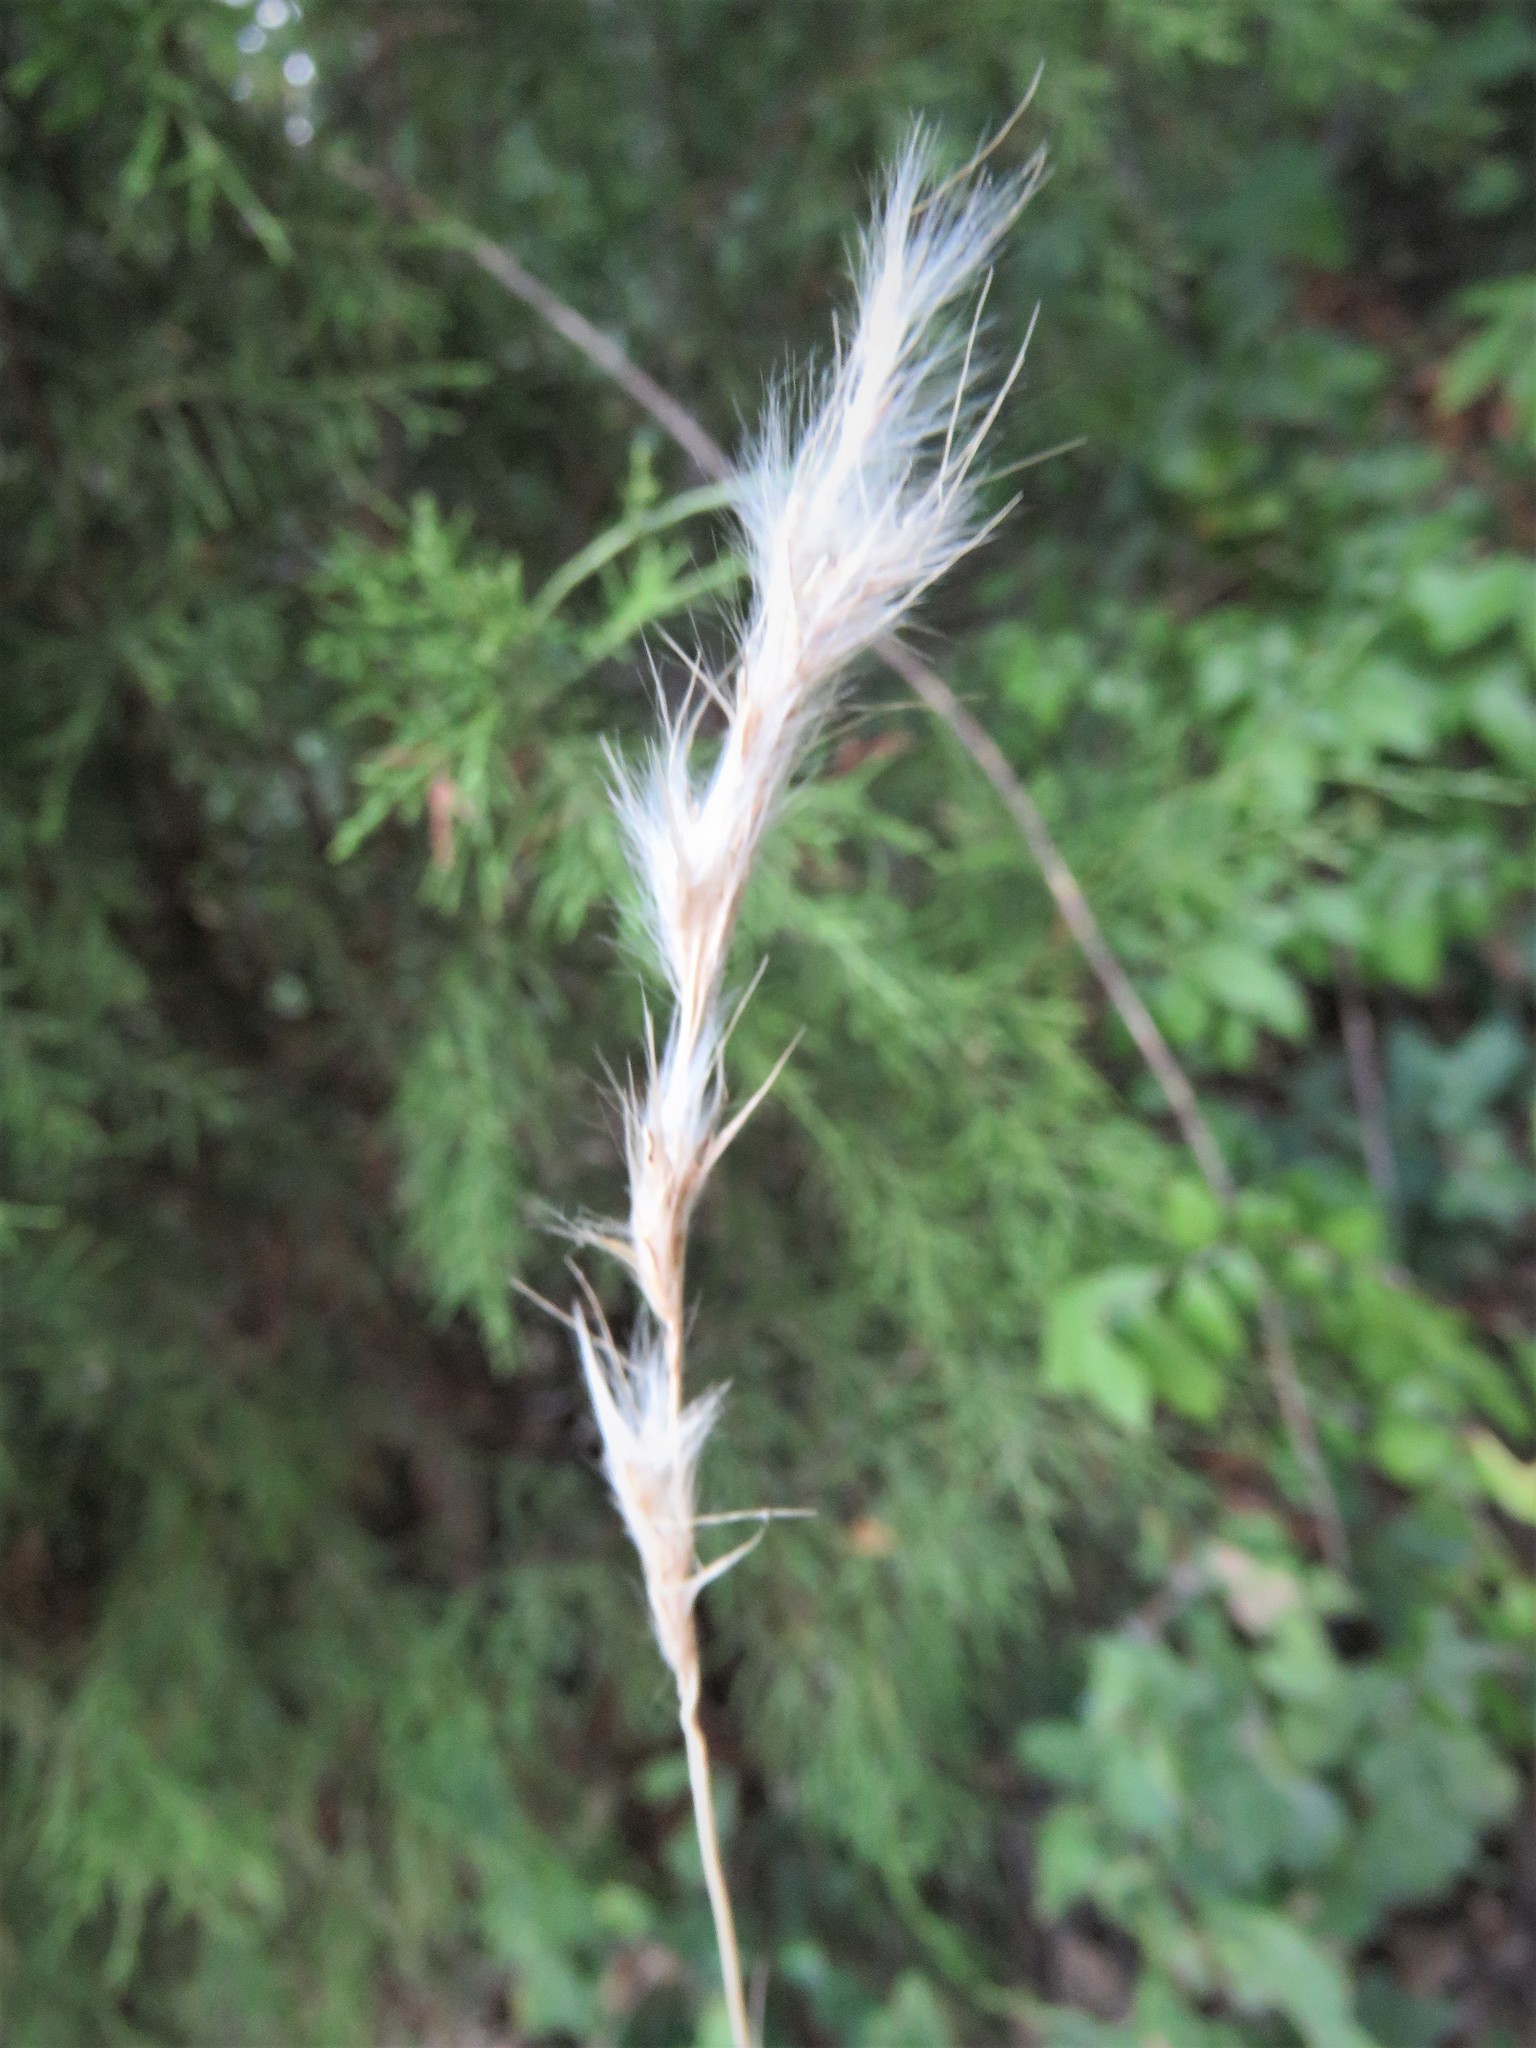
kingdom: Plantae
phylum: Tracheophyta
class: Liliopsida
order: Poales
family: Poaceae
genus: Bothriochloa
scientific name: Bothriochloa torreyana
